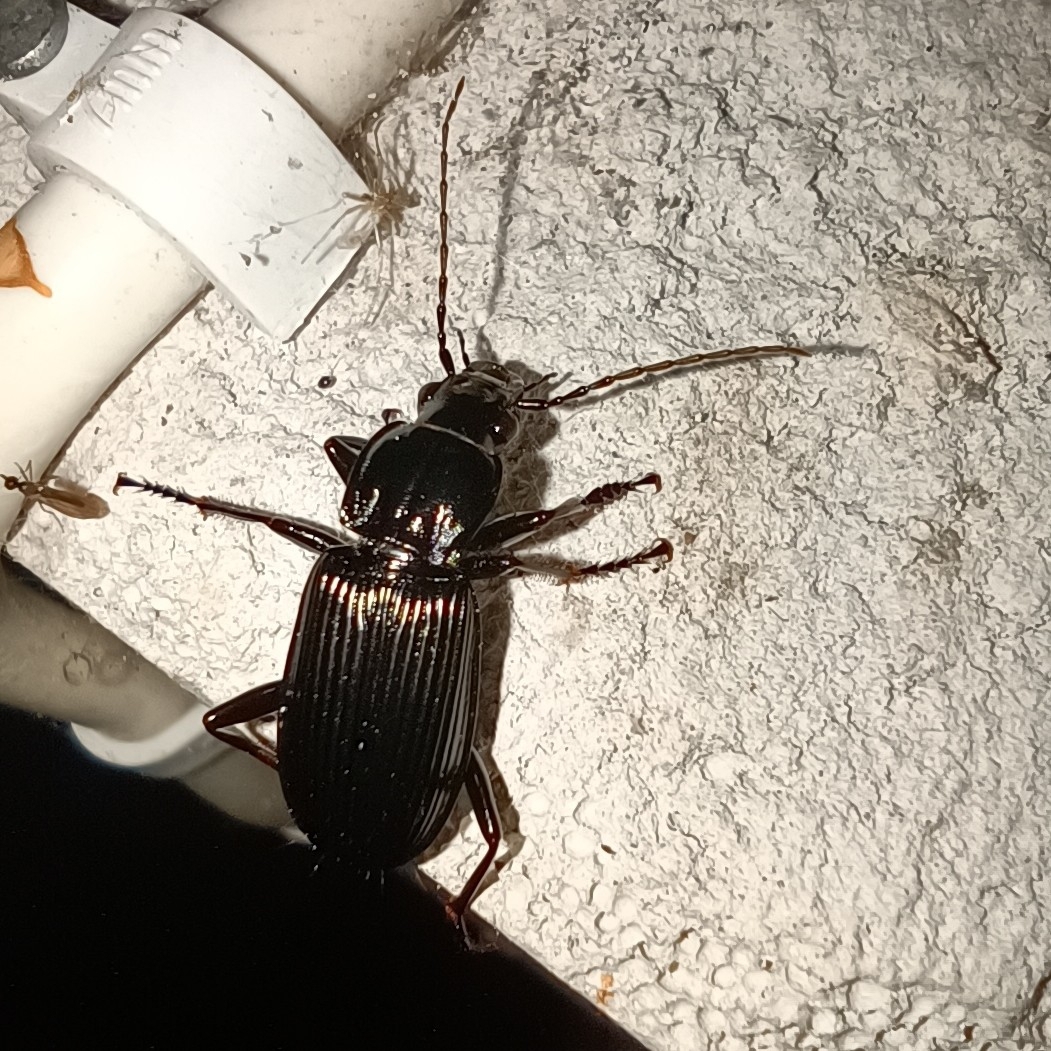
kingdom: Animalia
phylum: Arthropoda
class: Insecta
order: Coleoptera
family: Carabidae
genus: Pterostichus
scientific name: Pterostichus niger
